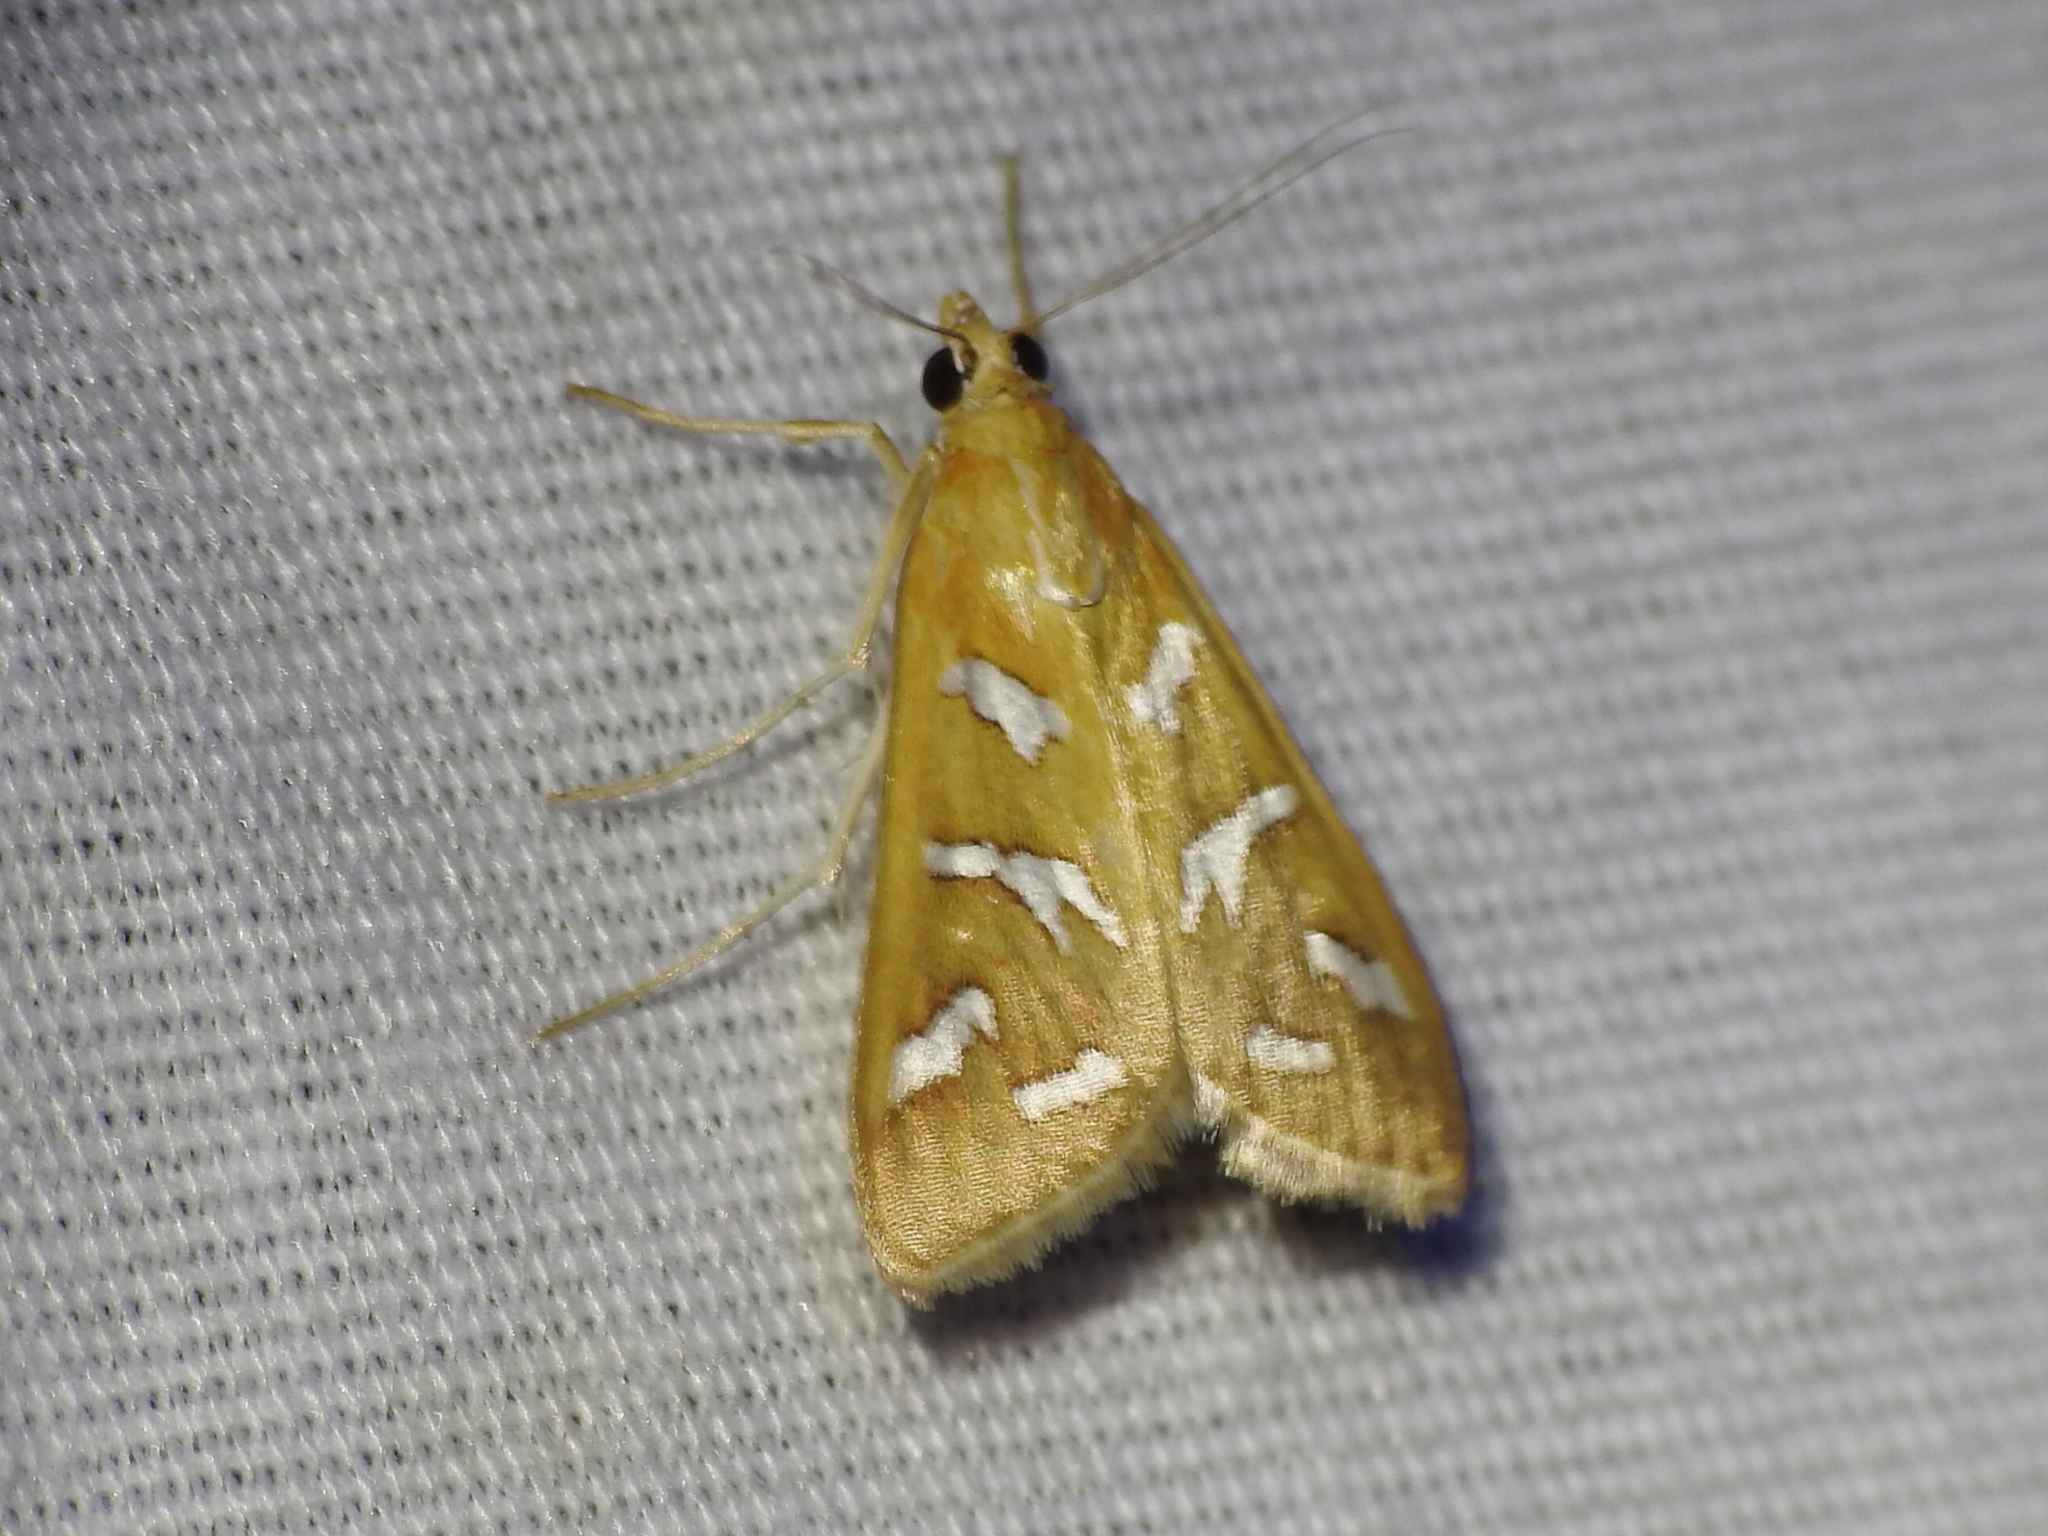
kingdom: Animalia
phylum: Arthropoda
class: Insecta
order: Lepidoptera
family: Crambidae
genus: Diastictis
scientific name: Diastictis fracturalis
